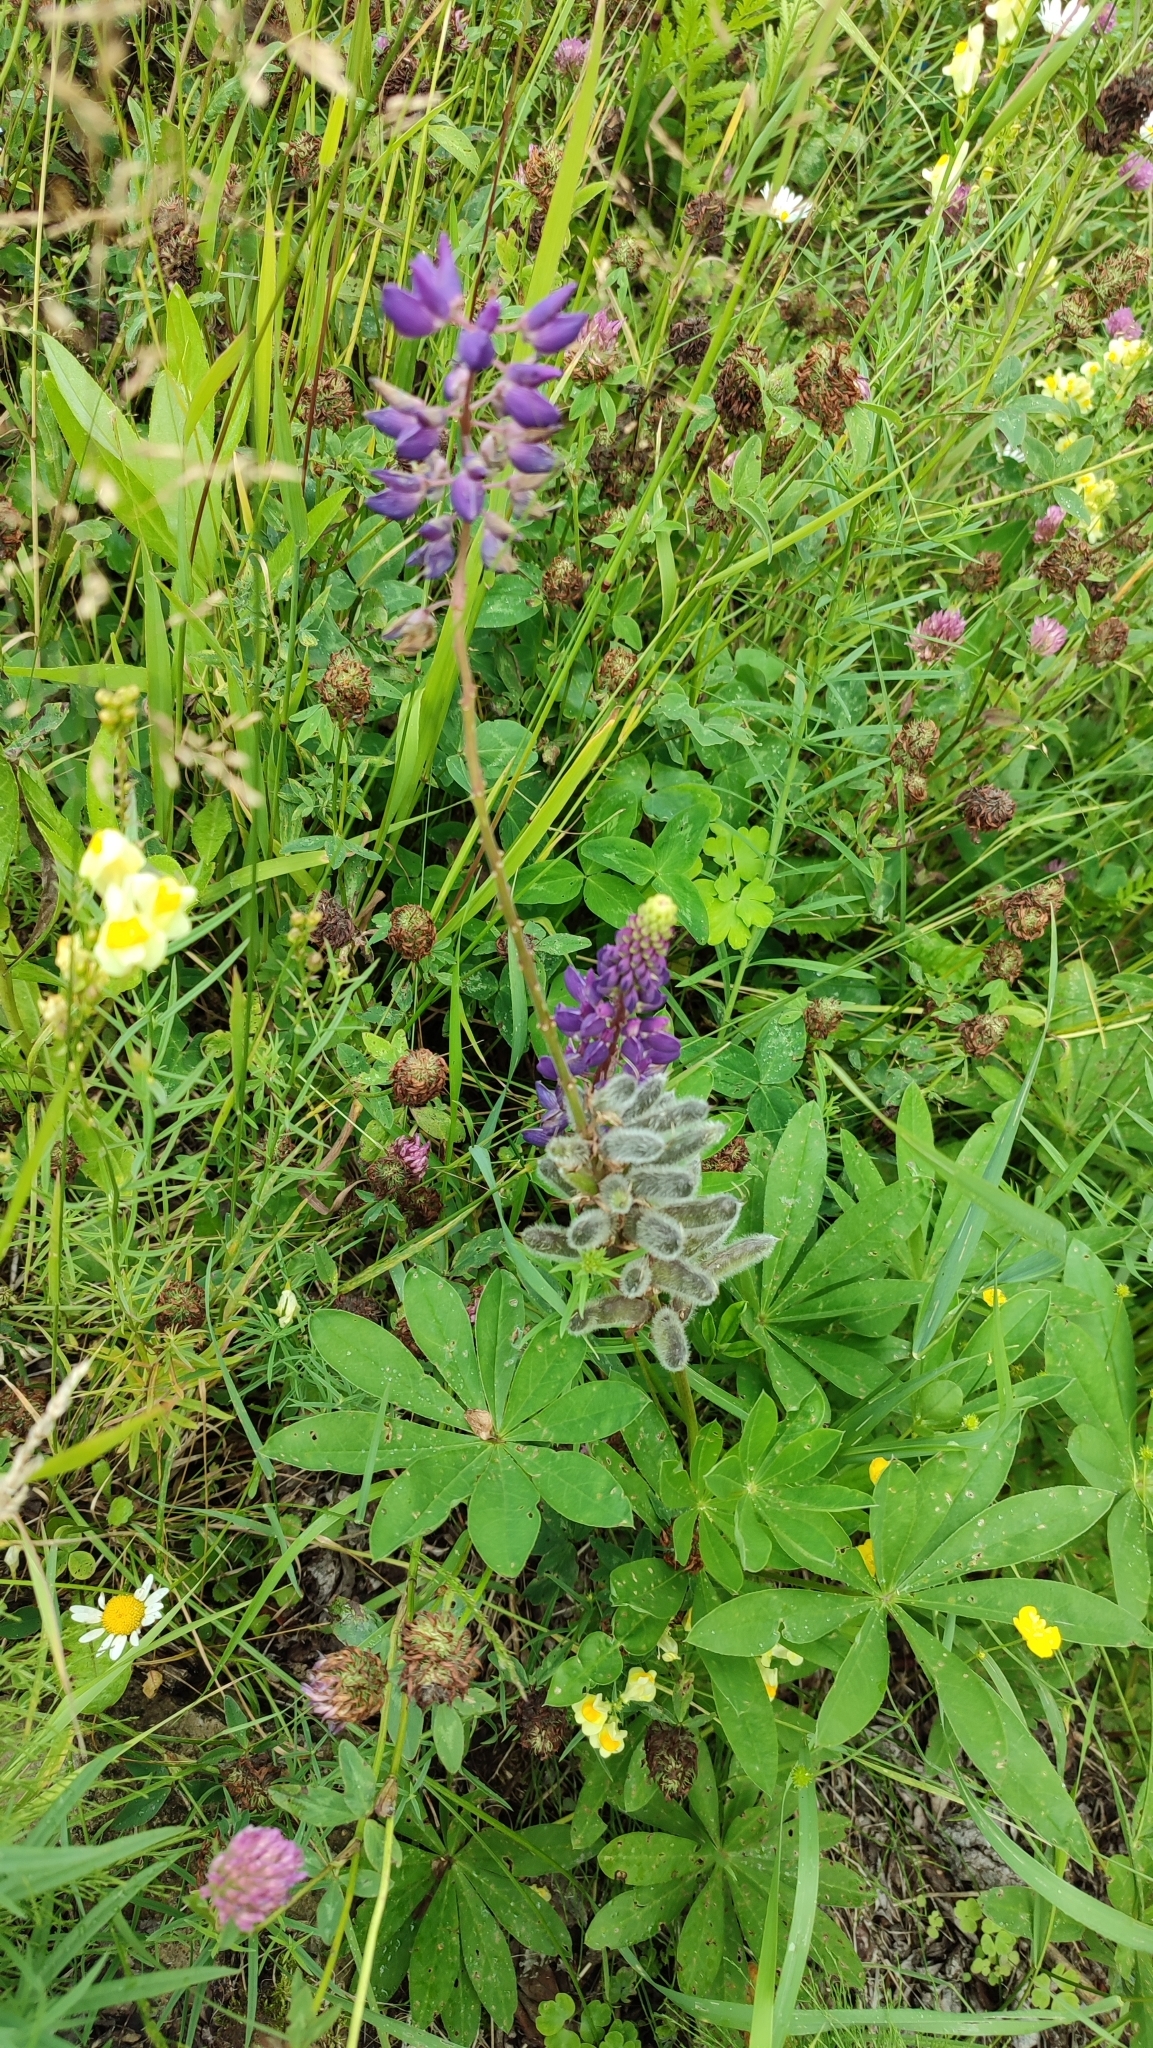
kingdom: Plantae
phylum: Tracheophyta
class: Magnoliopsida
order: Fabales
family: Fabaceae
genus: Lupinus
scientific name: Lupinus polyphyllus
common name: Garden lupin
